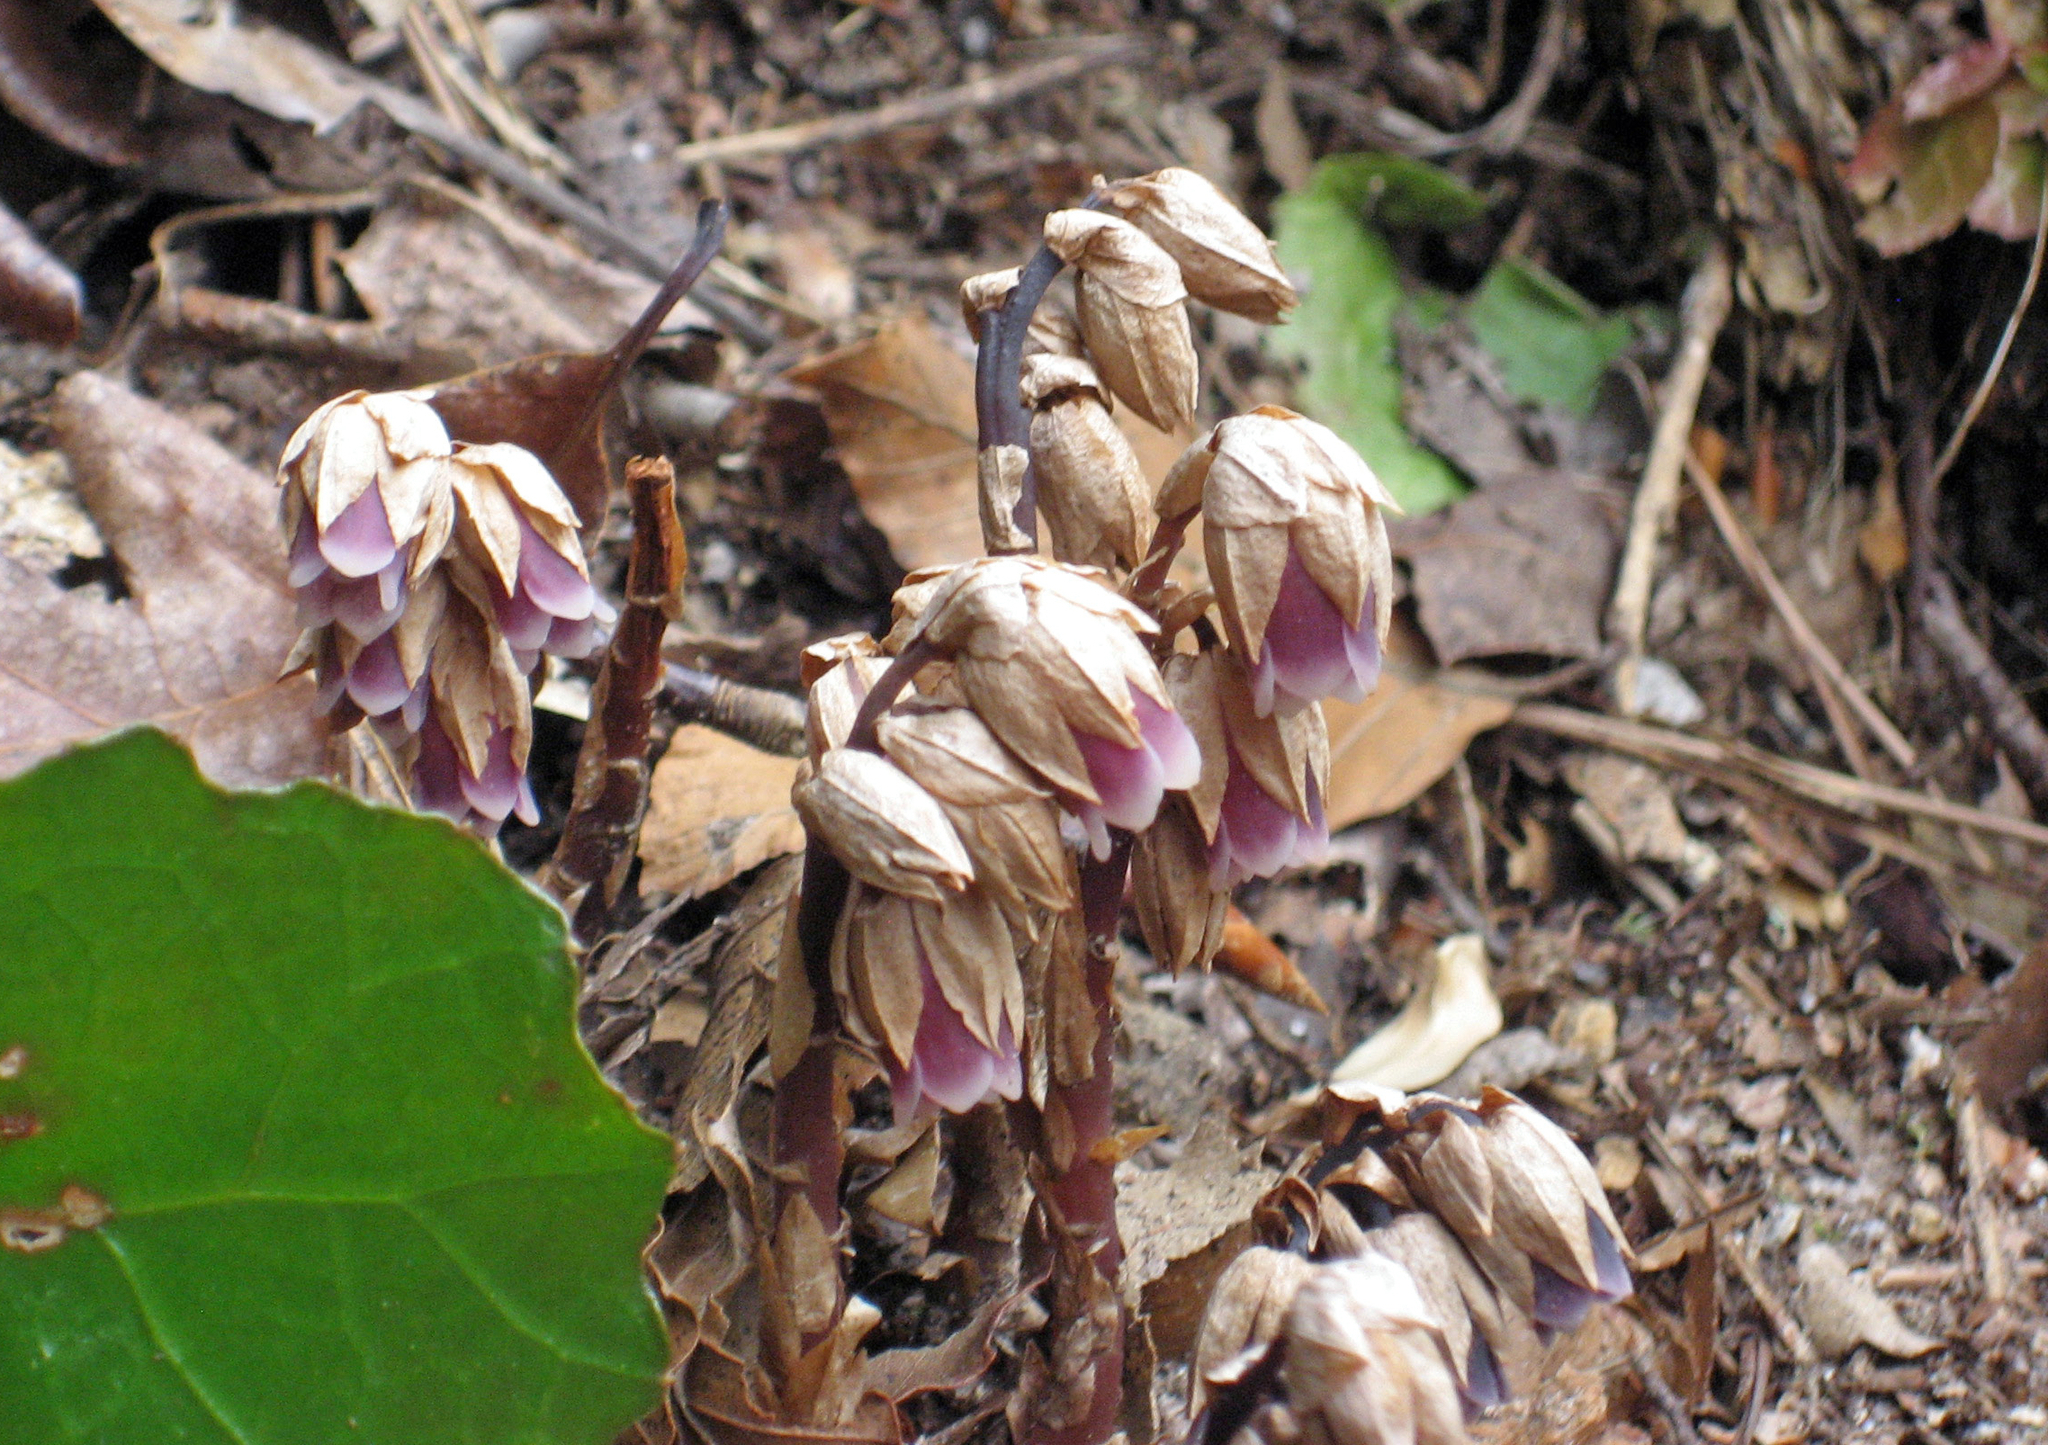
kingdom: Plantae
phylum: Tracheophyta
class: Magnoliopsida
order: Ericales
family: Ericaceae
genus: Monotropsis
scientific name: Monotropsis odorata
